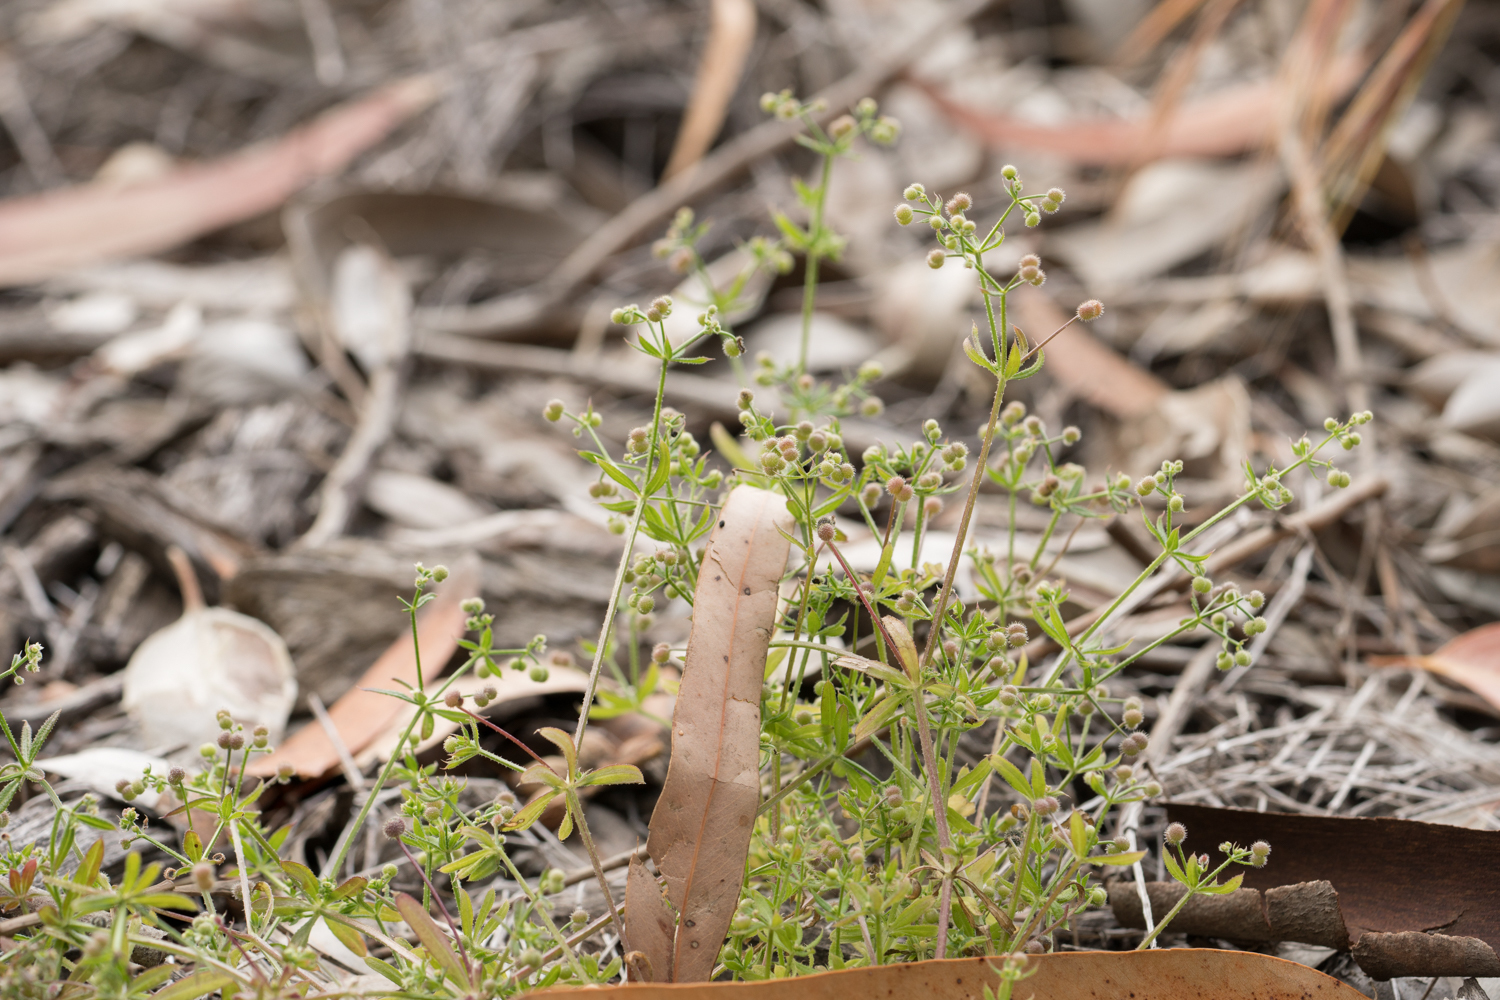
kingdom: Plantae
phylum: Tracheophyta
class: Magnoliopsida
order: Gentianales
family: Rubiaceae
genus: Galium
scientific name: Galium aparine
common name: Cleavers
